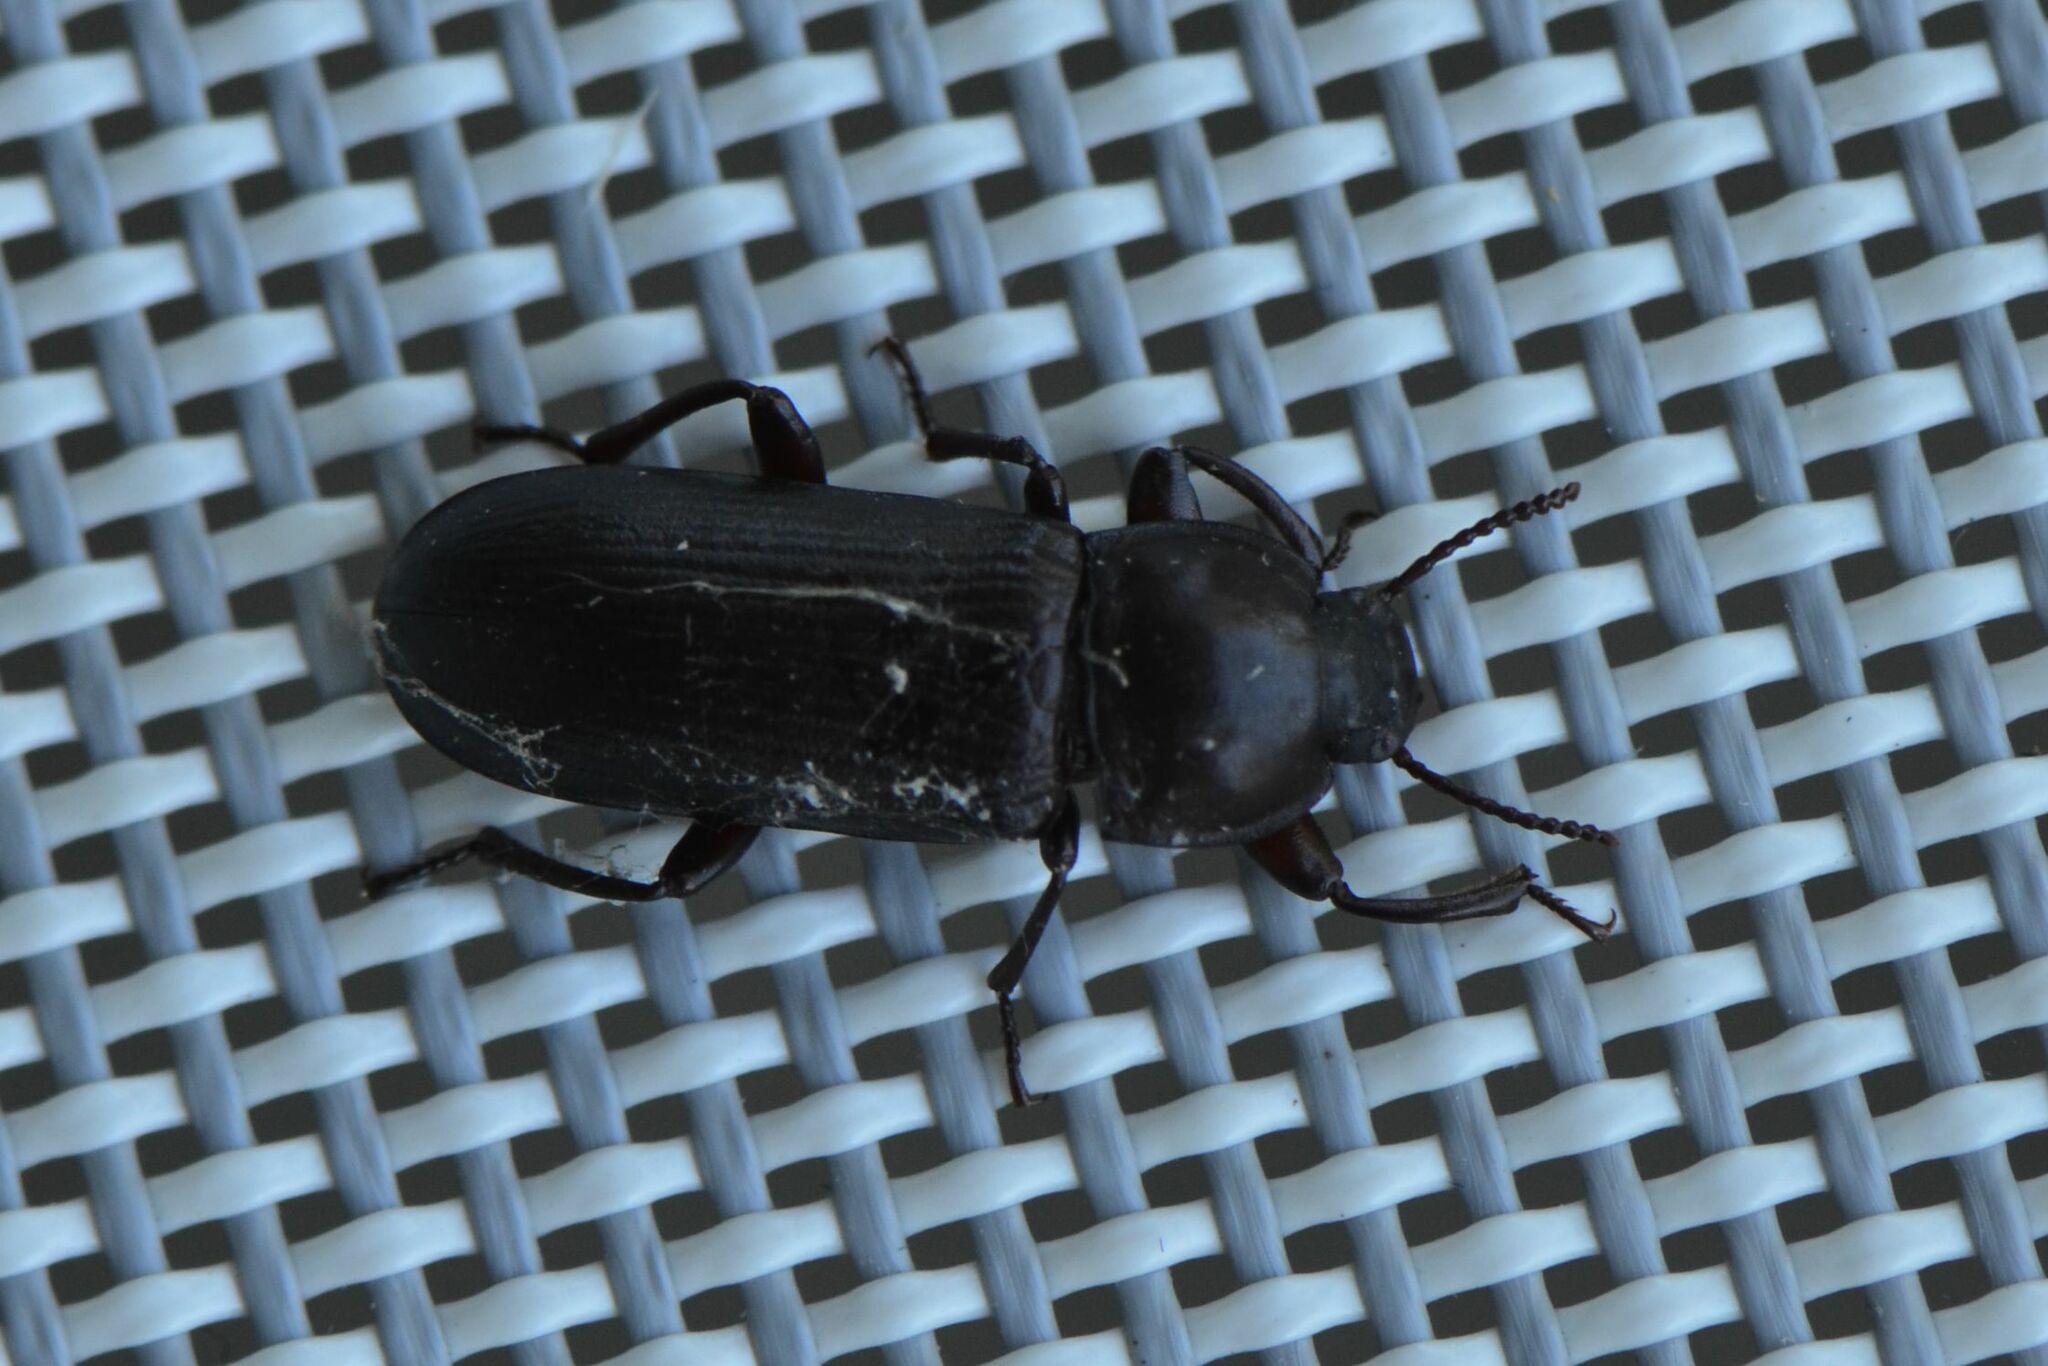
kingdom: Animalia
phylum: Arthropoda
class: Insecta
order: Coleoptera
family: Tenebrionidae
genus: Tenebrio
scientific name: Tenebrio molitor
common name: Hardback beetle
